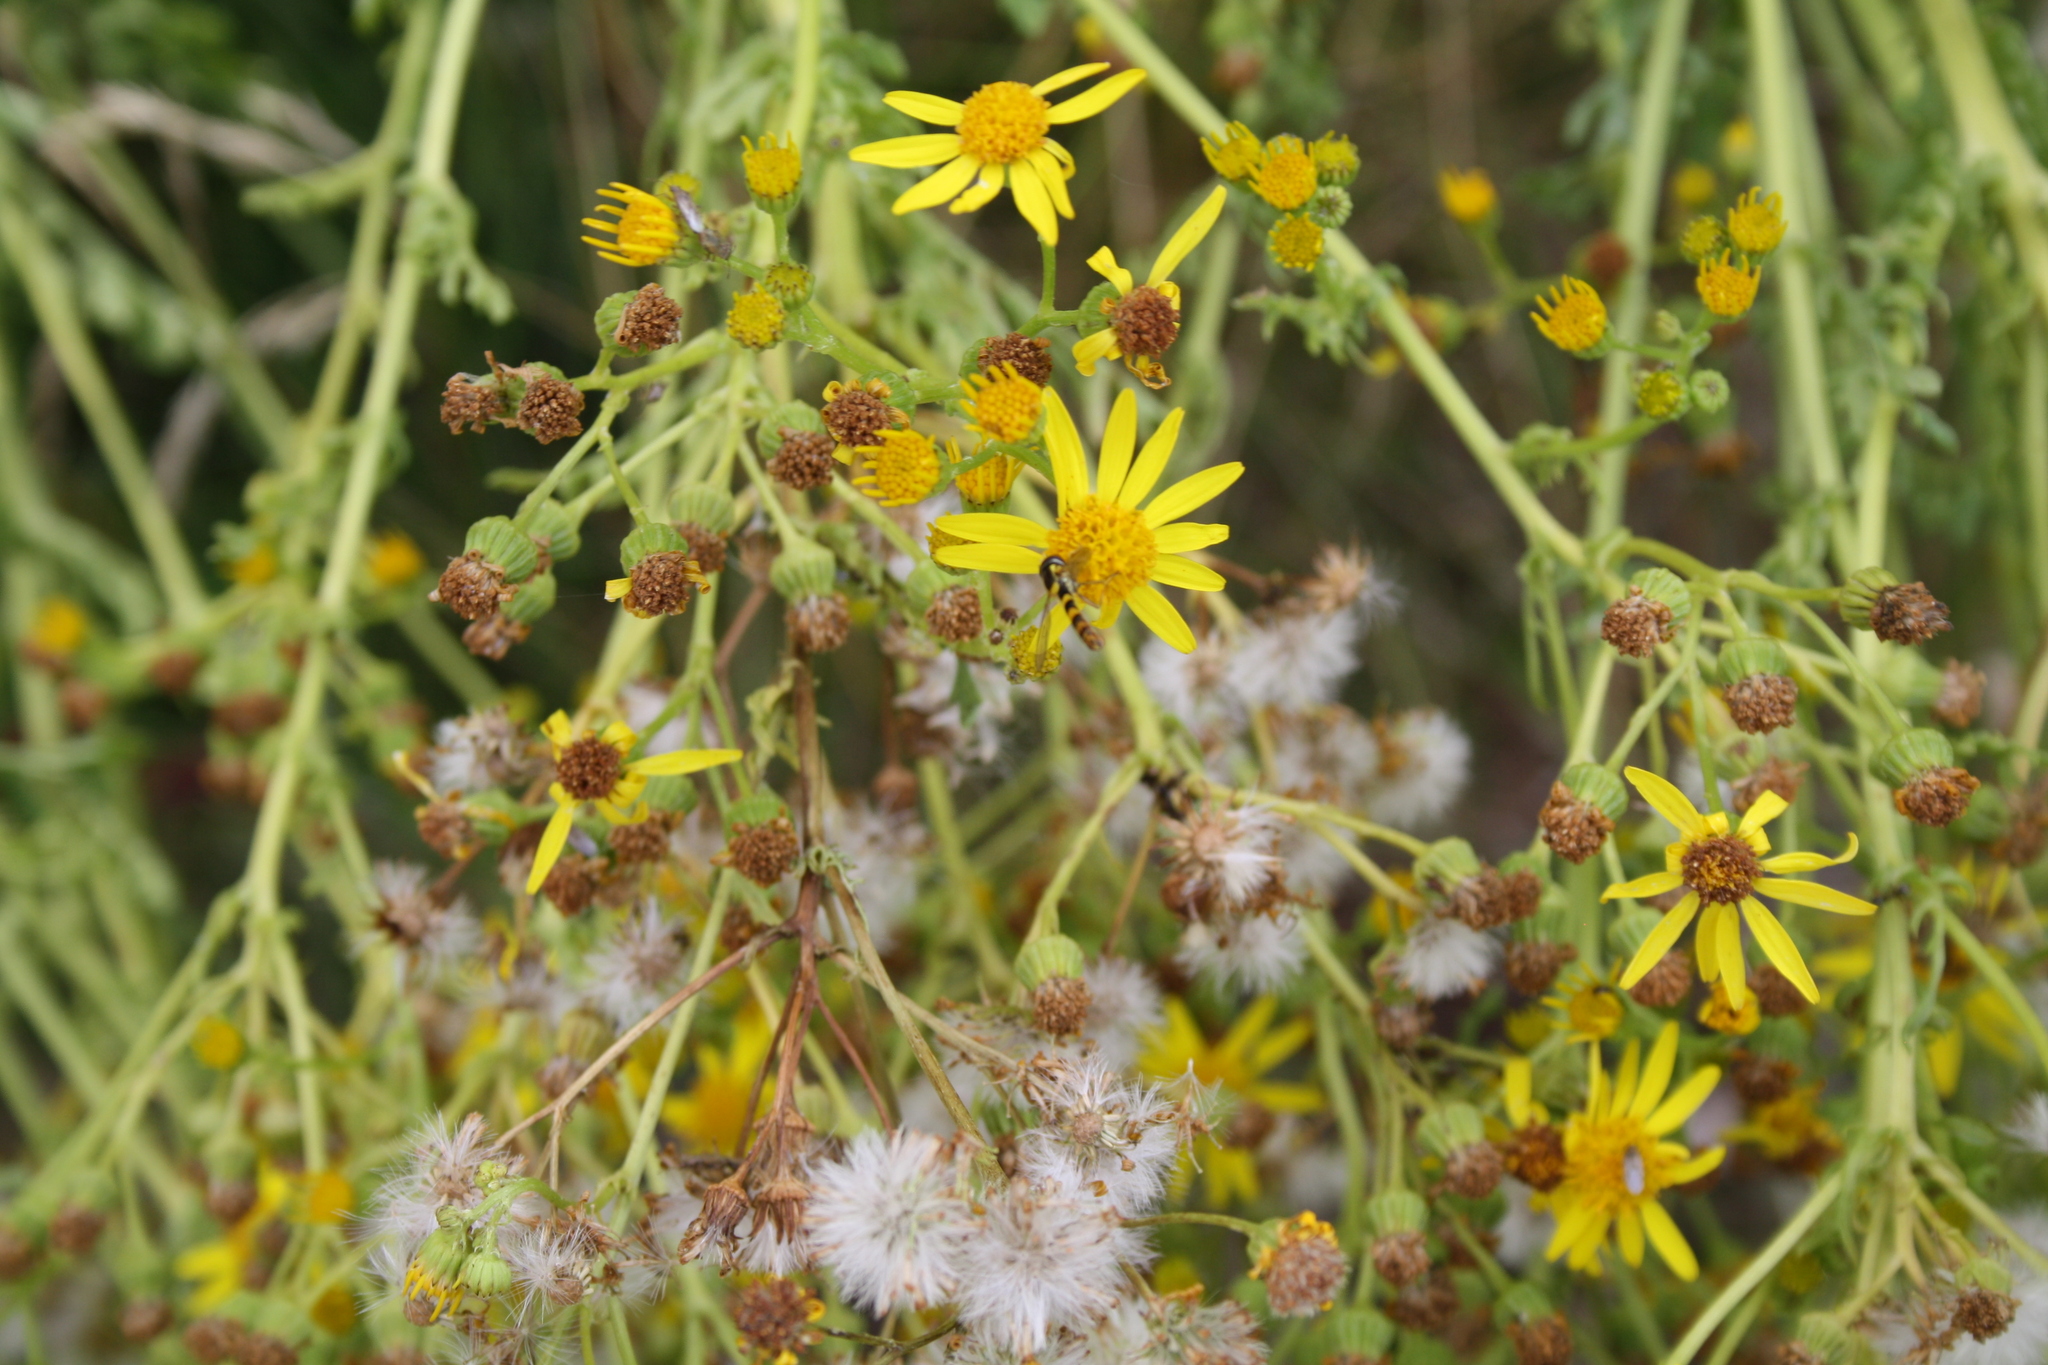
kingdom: Animalia
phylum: Arthropoda
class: Insecta
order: Diptera
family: Syrphidae
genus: Sphaerophoria
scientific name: Sphaerophoria scripta
